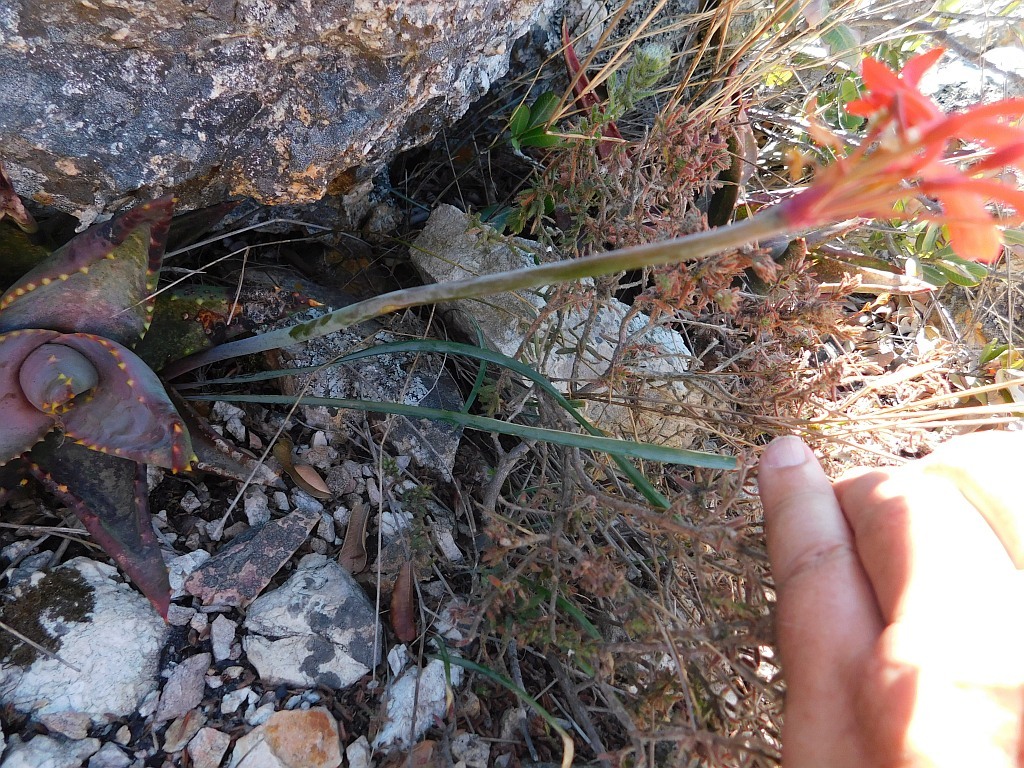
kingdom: Plantae
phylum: Tracheophyta
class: Liliopsida
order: Asparagales
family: Amaryllidaceae
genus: Cyrtanthus
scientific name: Cyrtanthus collinus
